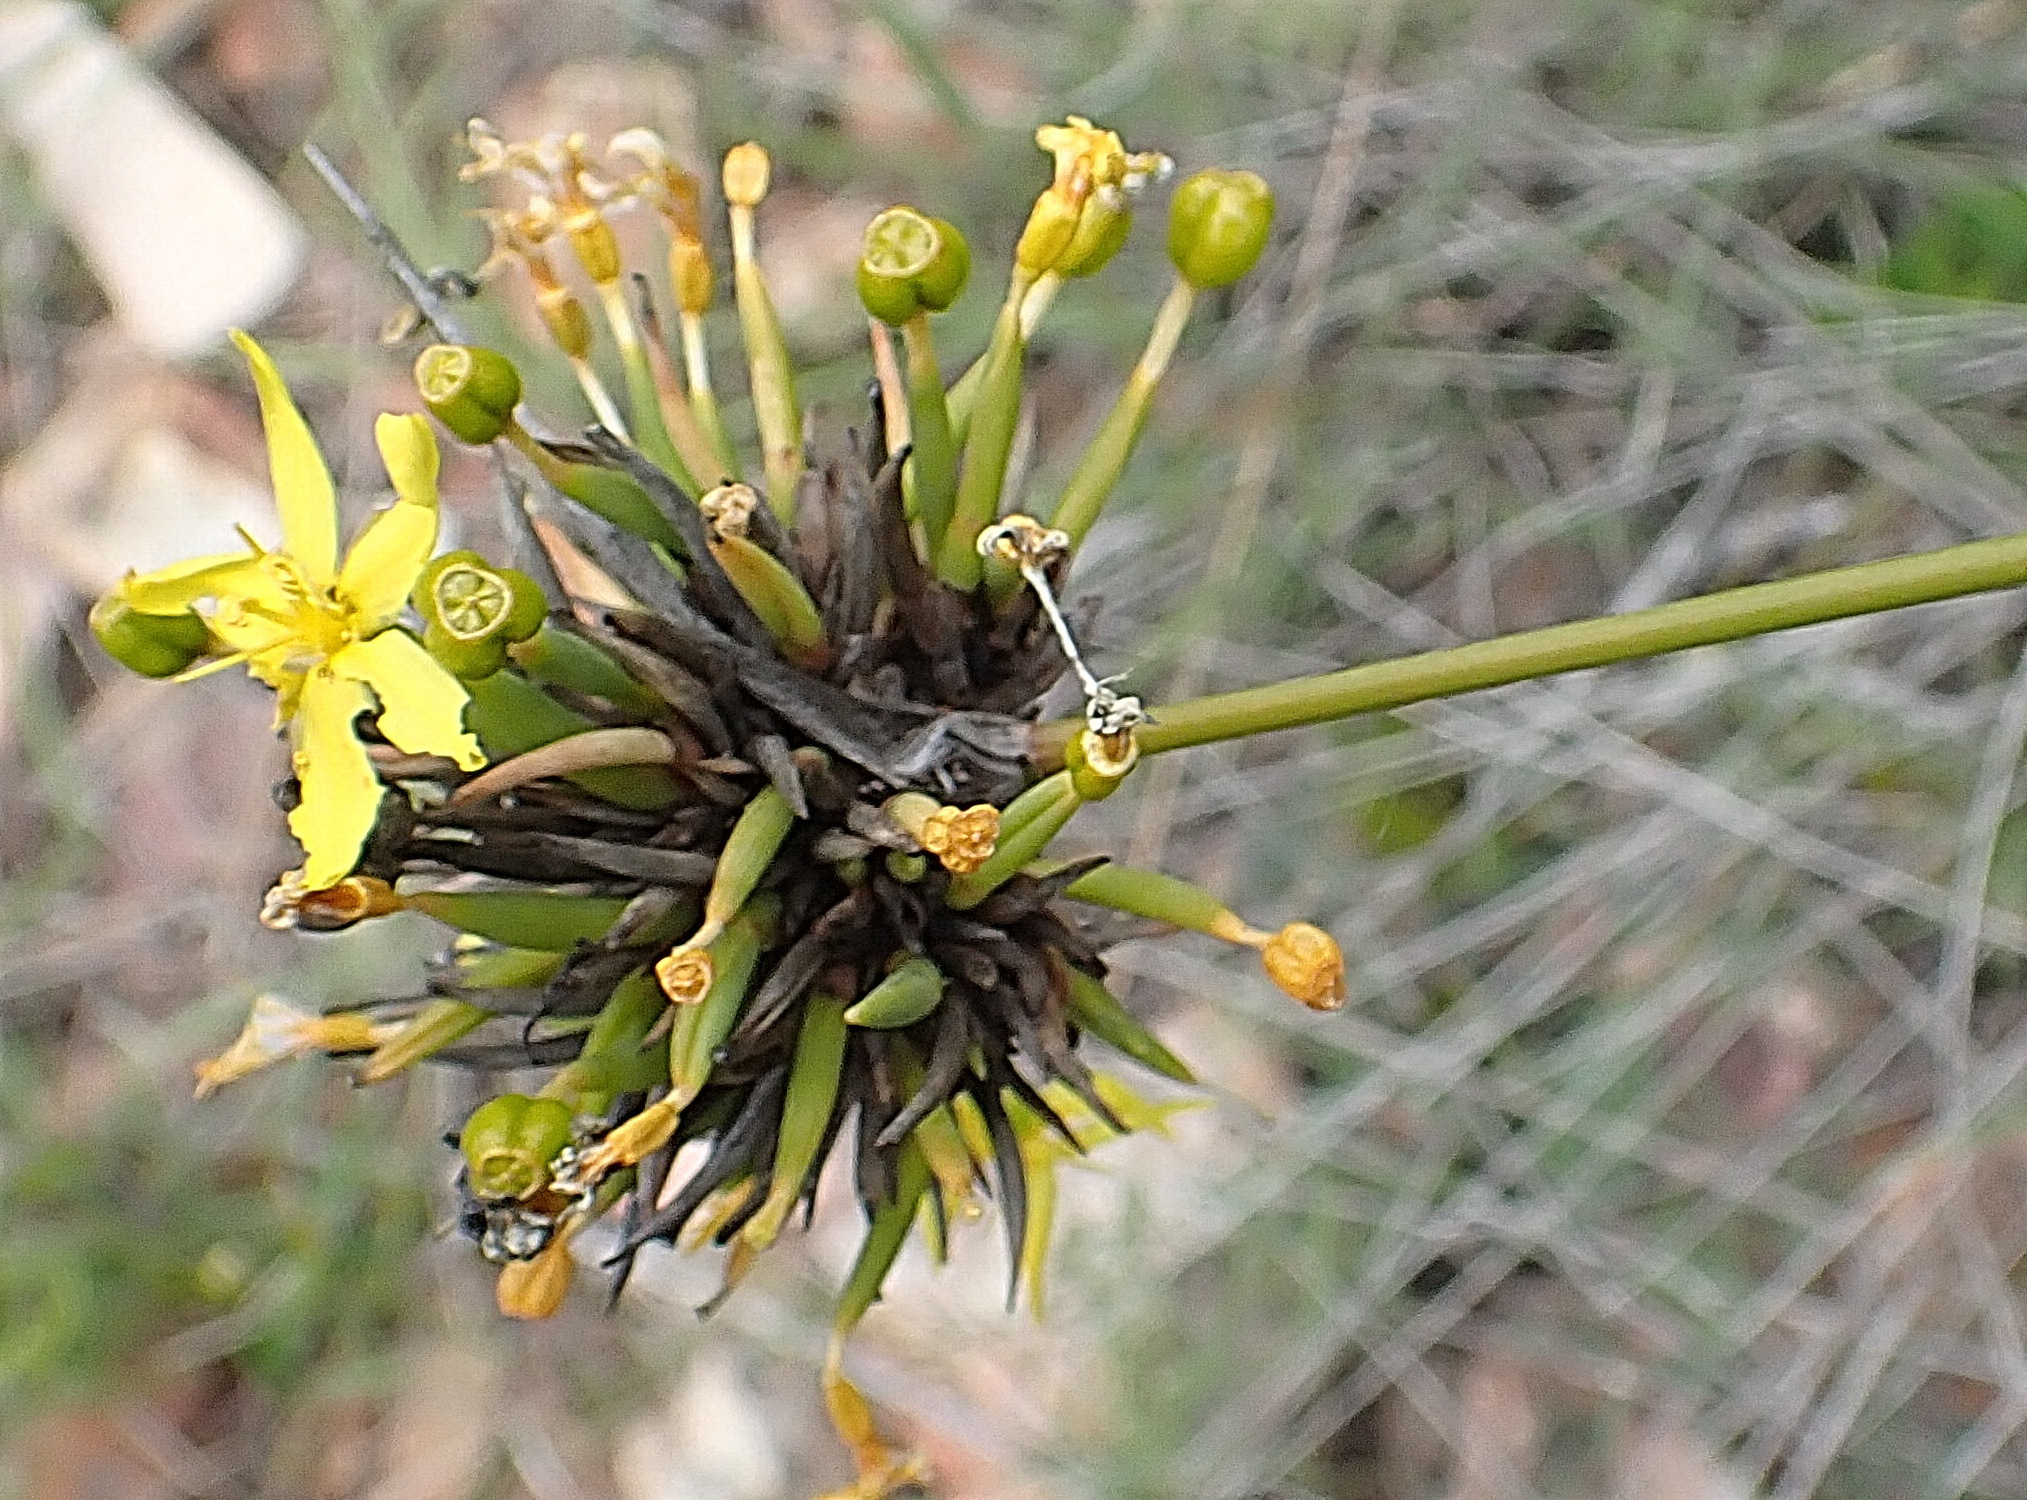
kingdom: Plantae
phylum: Tracheophyta
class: Liliopsida
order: Asparagales
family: Iridaceae
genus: Bobartia
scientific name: Bobartia orientalis
